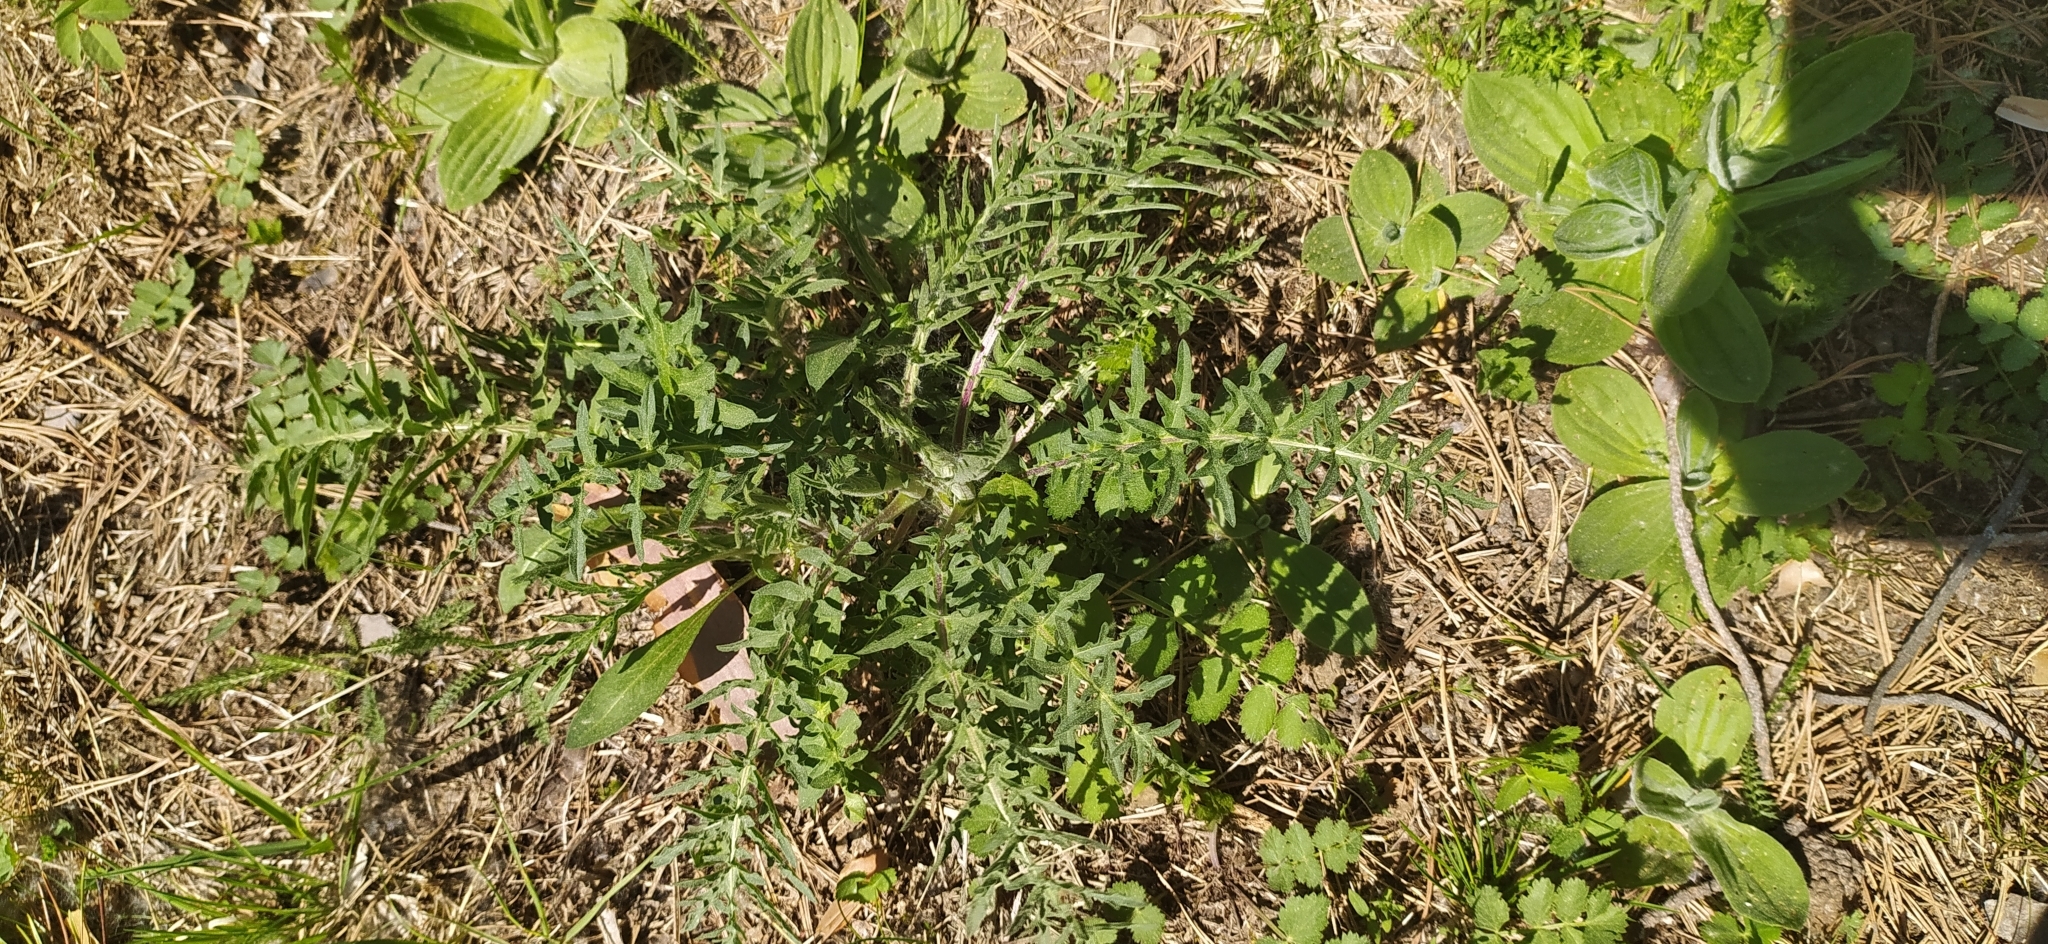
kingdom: Plantae
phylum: Tracheophyta
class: Magnoliopsida
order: Asterales
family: Asteraceae
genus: Centaurea
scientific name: Centaurea scabiosa
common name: Greater knapweed
